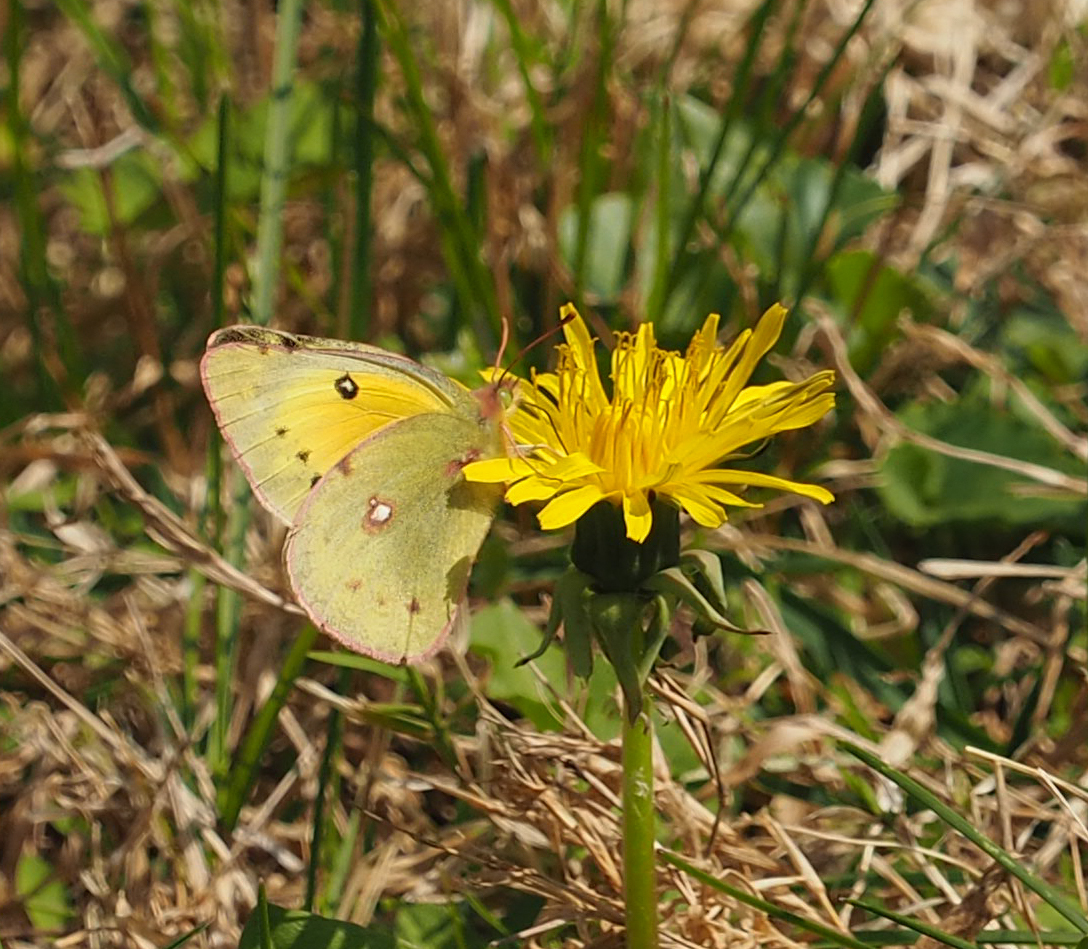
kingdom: Animalia
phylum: Arthropoda
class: Insecta
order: Lepidoptera
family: Pieridae
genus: Colias
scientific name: Colias eurytheme
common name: Alfalfa butterfly
